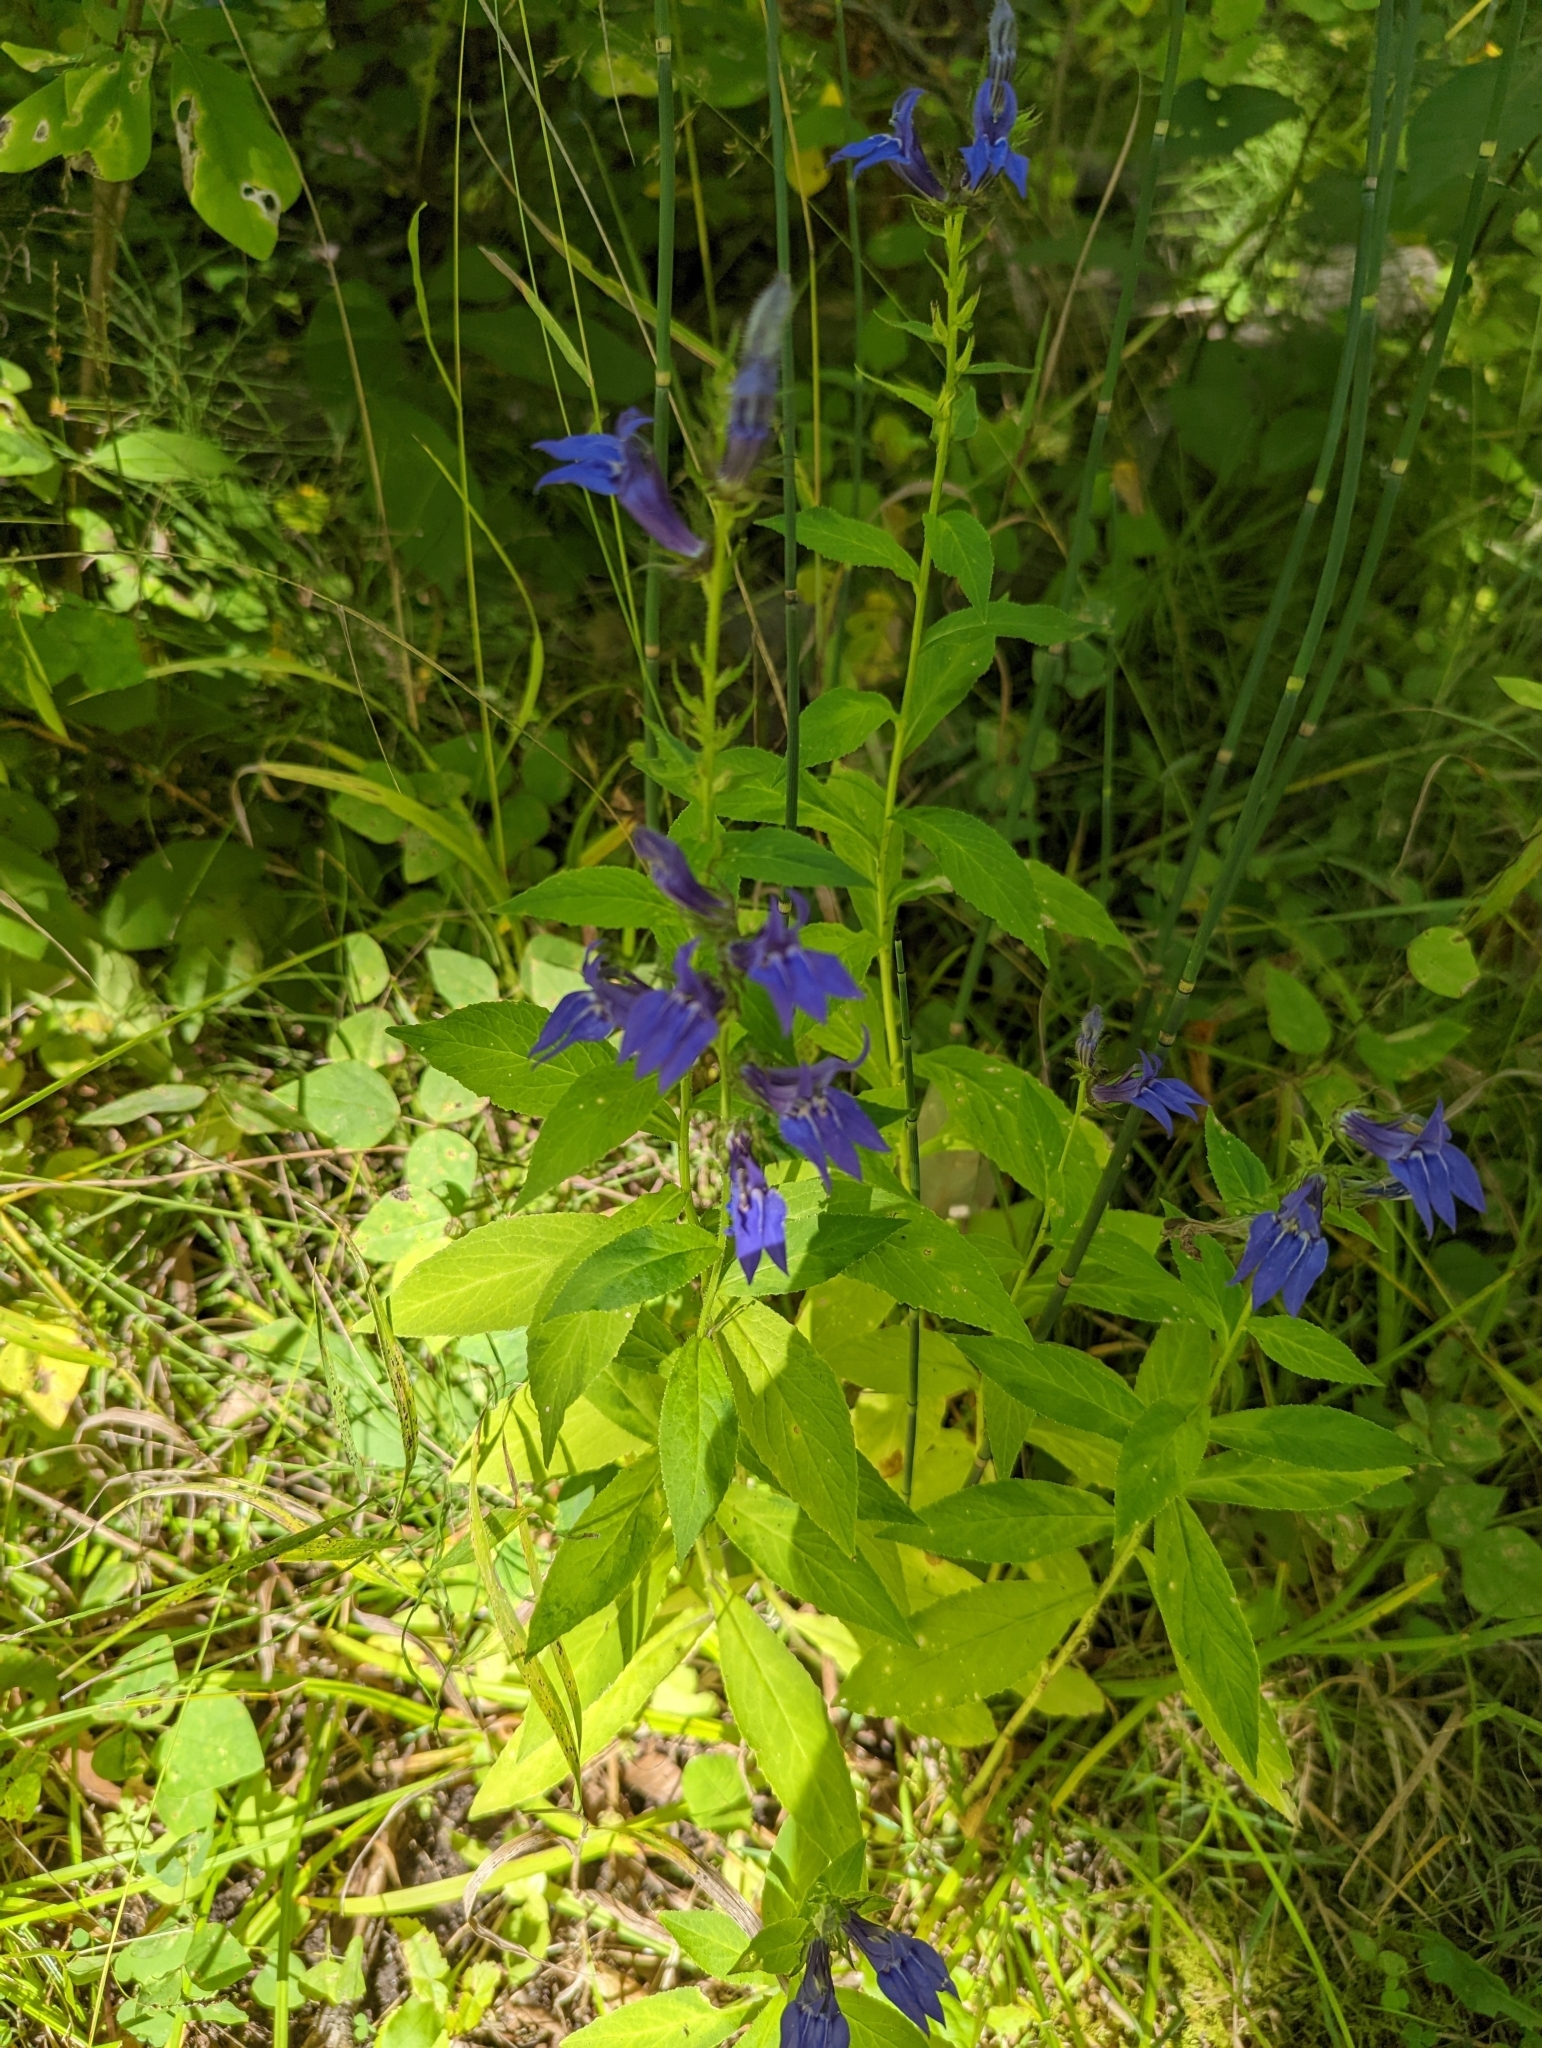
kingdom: Plantae
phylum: Tracheophyta
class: Magnoliopsida
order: Asterales
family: Campanulaceae
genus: Lobelia
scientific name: Lobelia siphilitica
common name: Great lobelia
